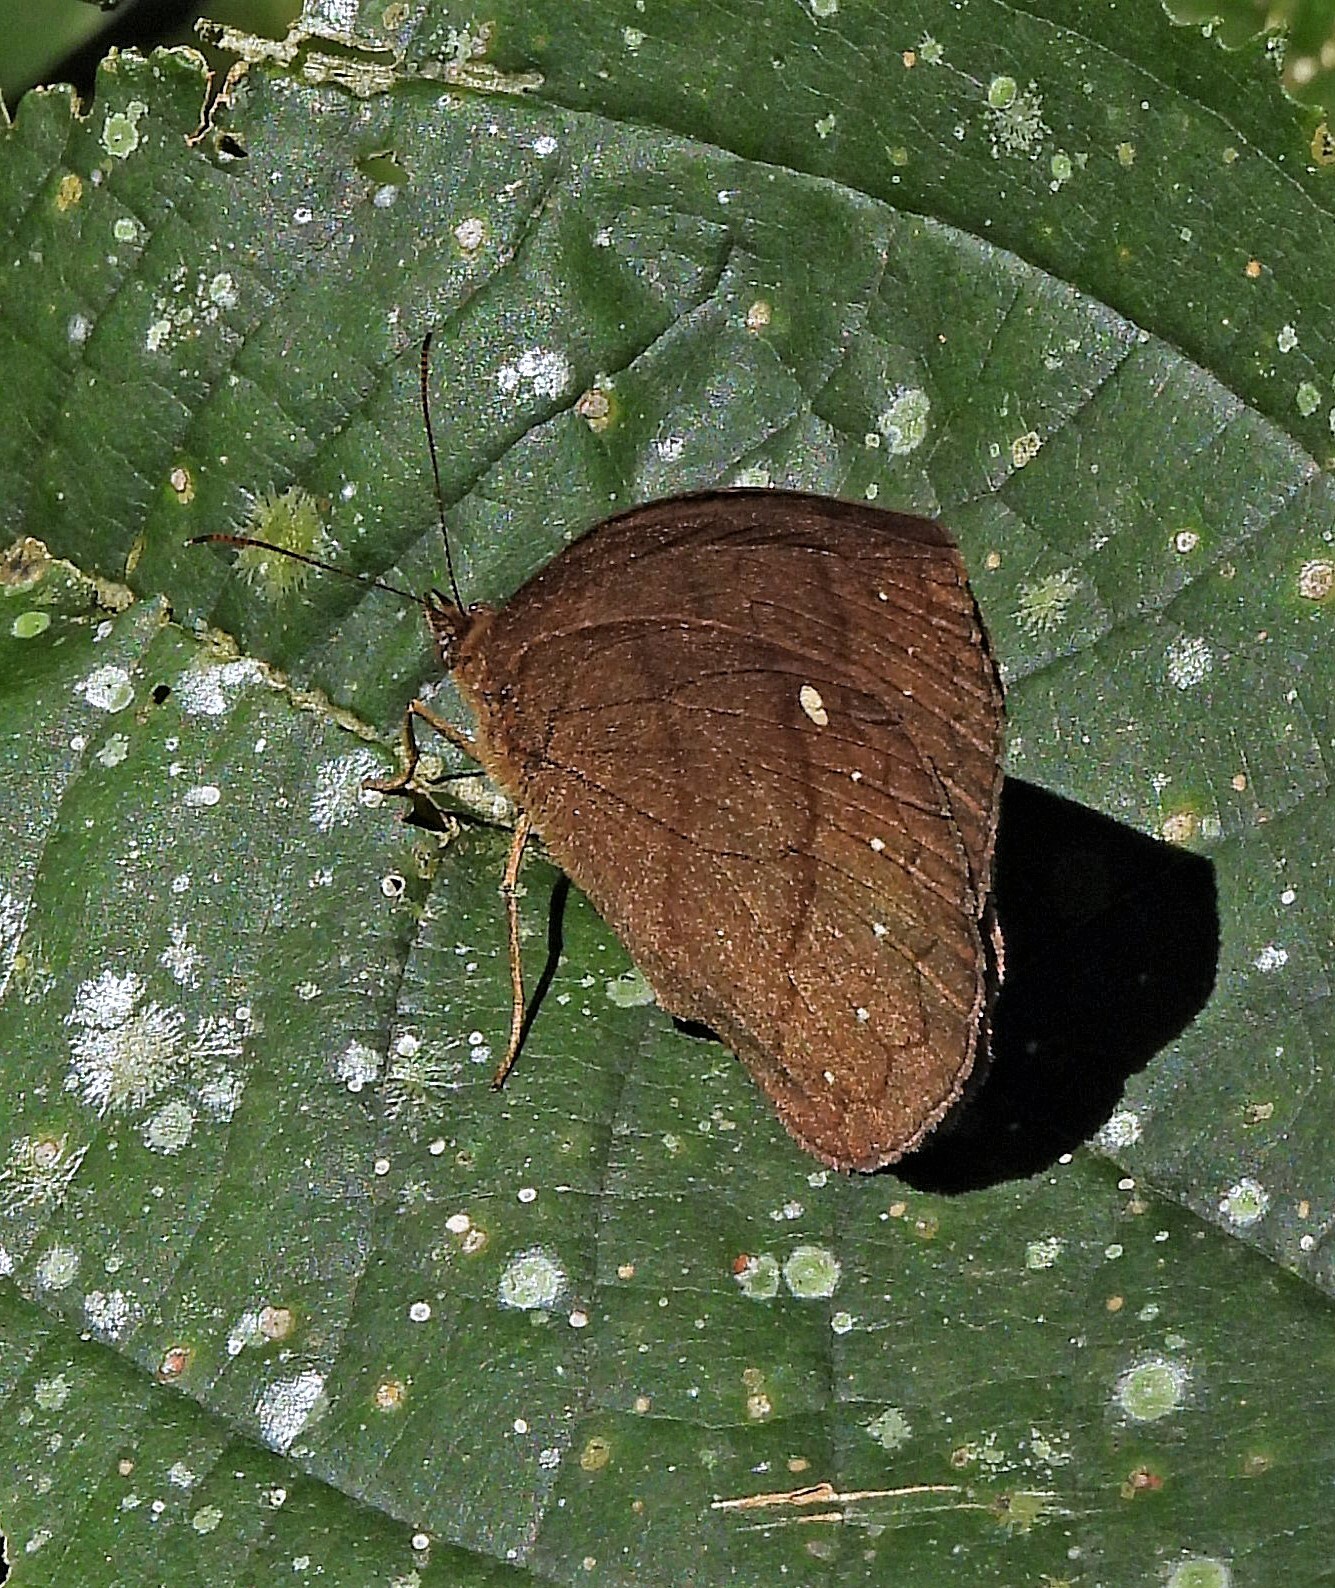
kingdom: Animalia
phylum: Arthropoda
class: Insecta
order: Lepidoptera
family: Nymphalidae
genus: Forsterinaria
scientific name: Forsterinaria quantius
